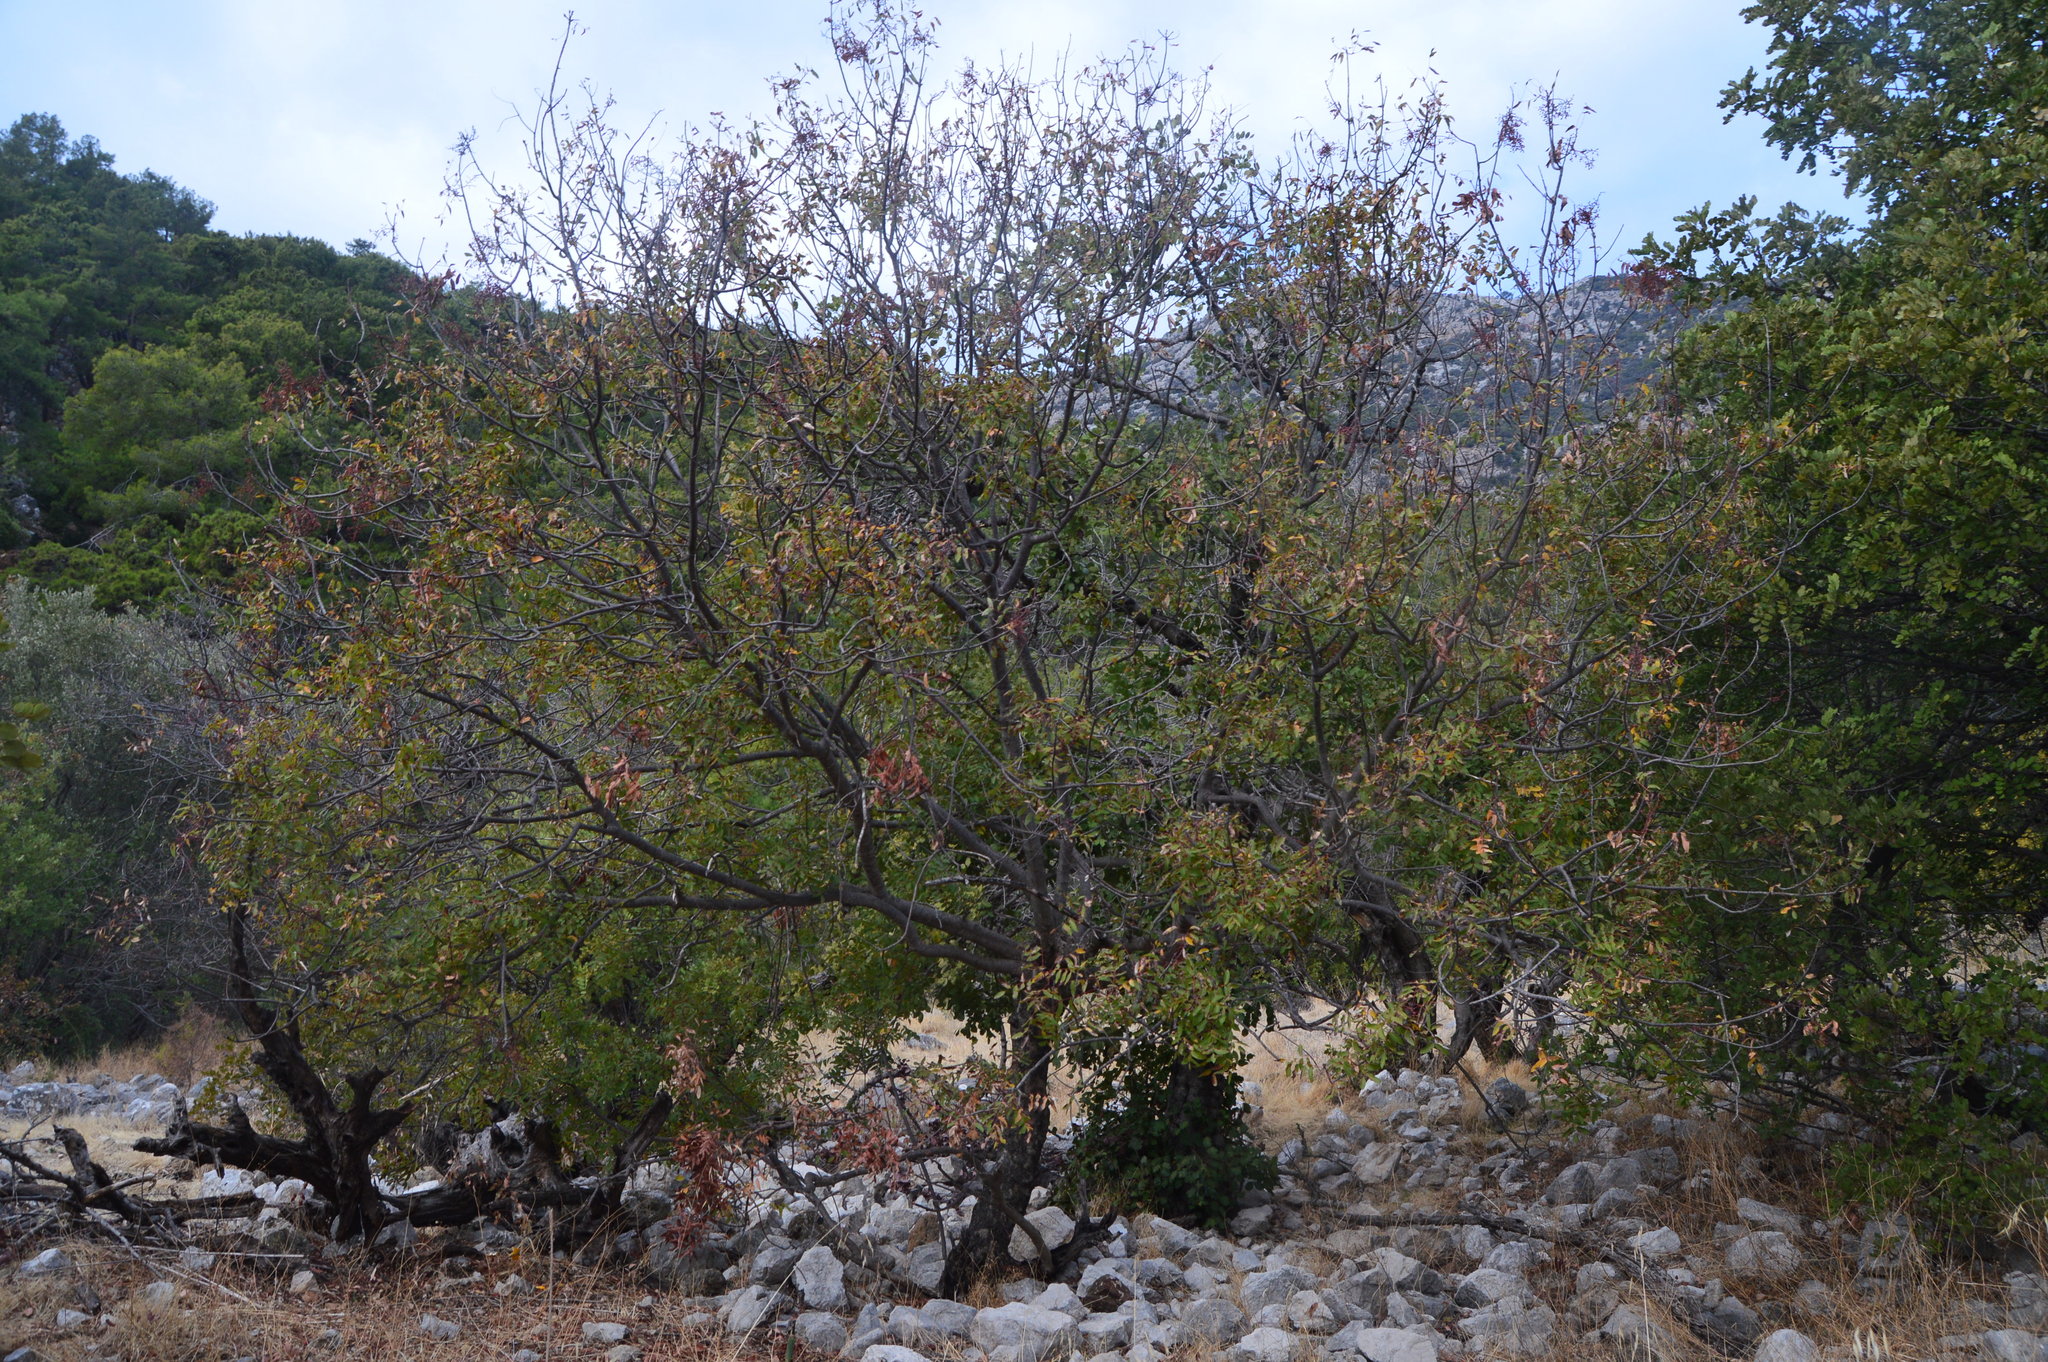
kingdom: Plantae
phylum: Tracheophyta
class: Magnoliopsida
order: Sapindales
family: Anacardiaceae
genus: Pistacia
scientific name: Pistacia terebinthus
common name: Terebinth
